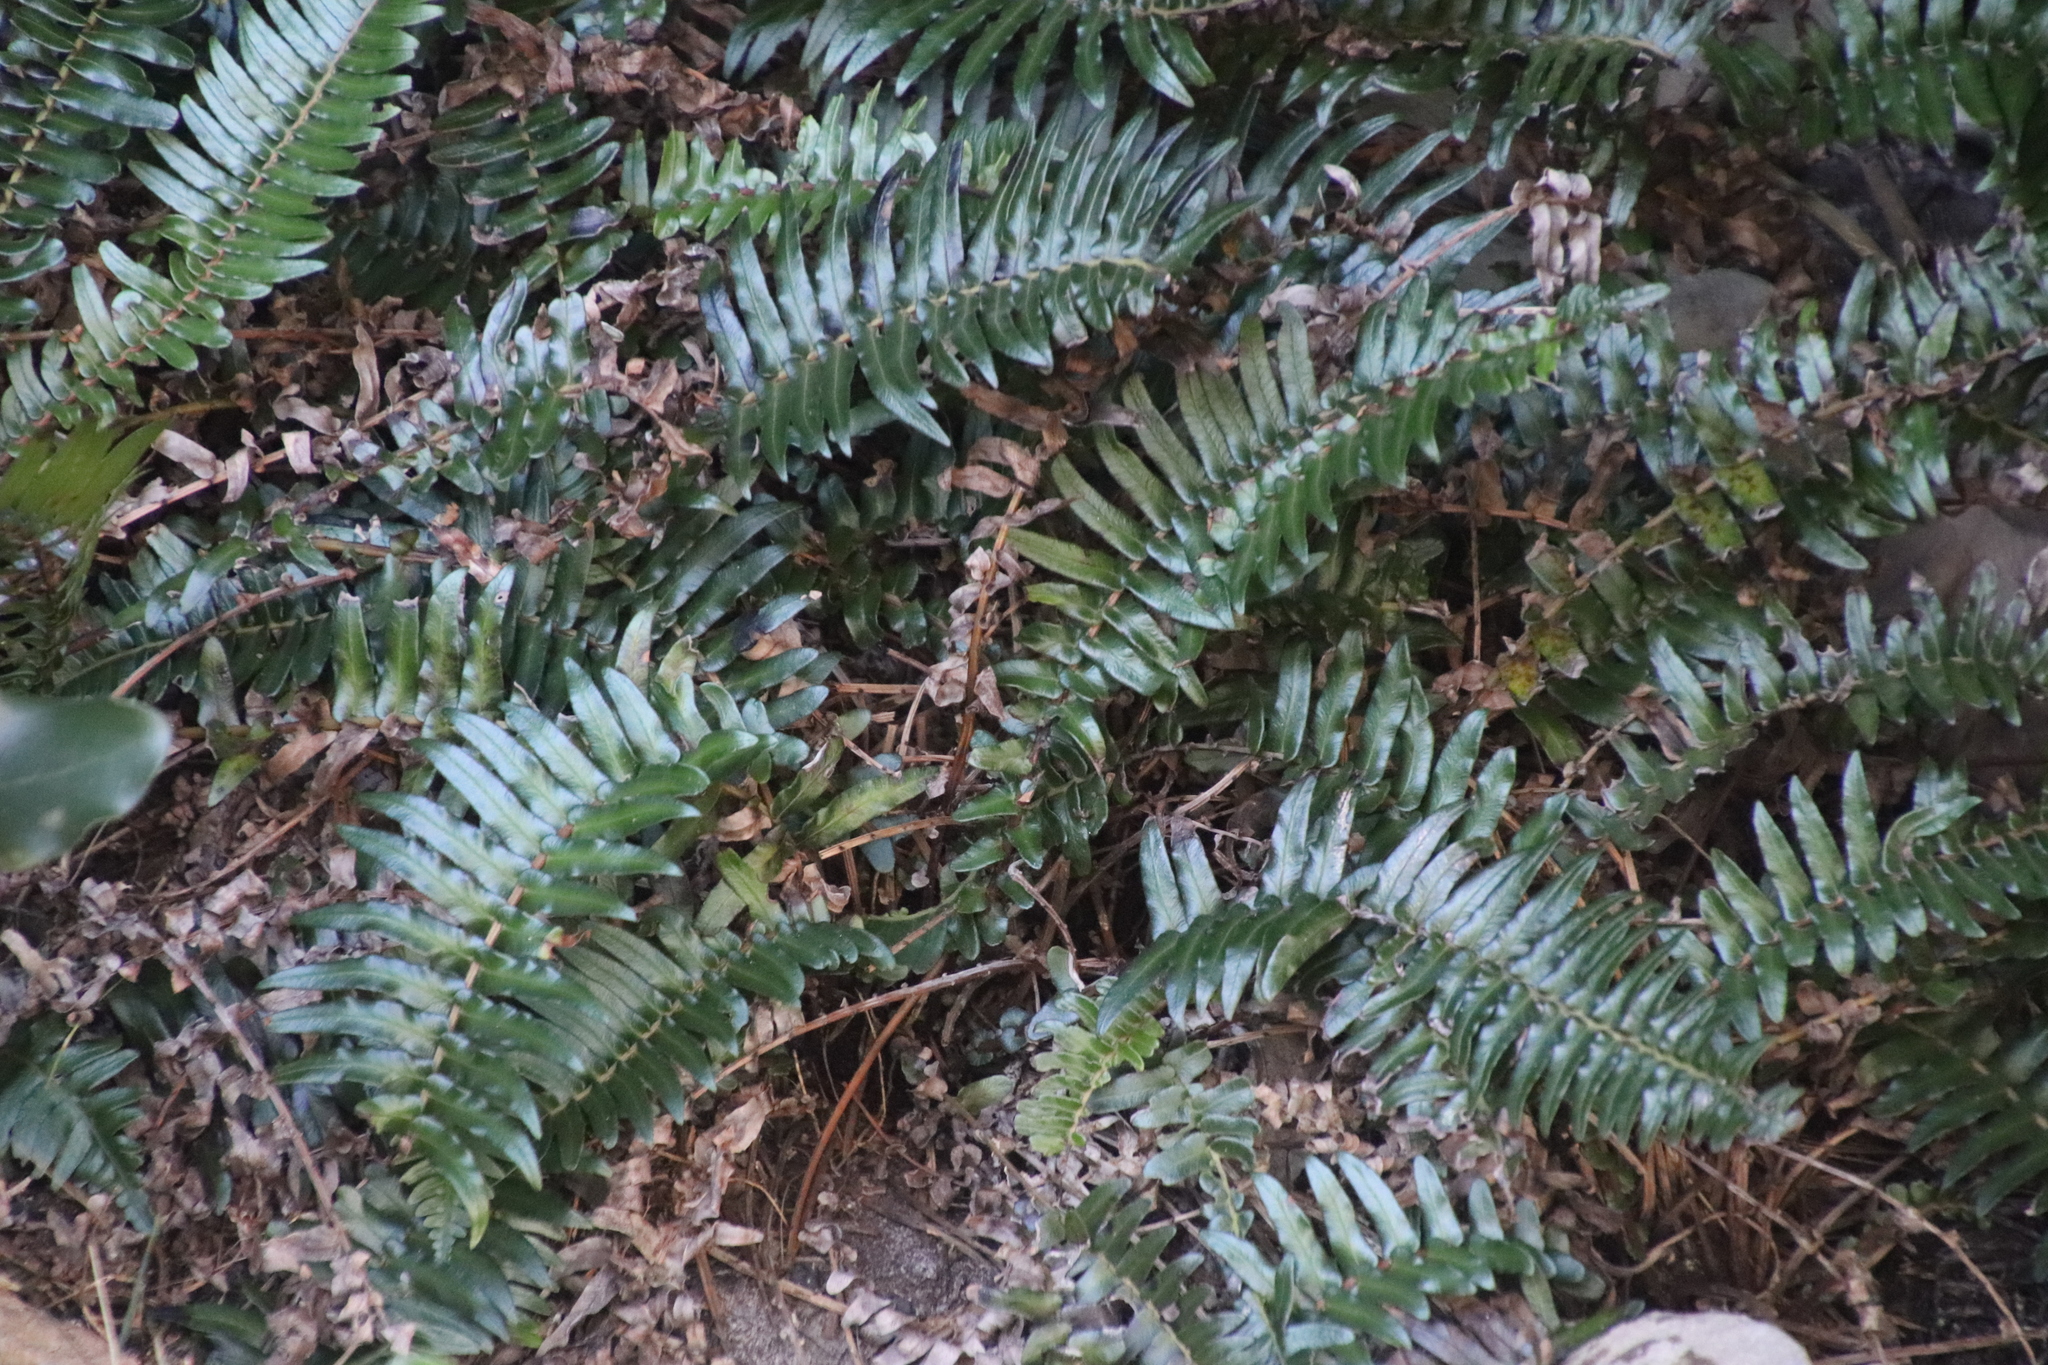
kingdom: Plantae
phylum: Tracheophyta
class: Polypodiopsida
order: Polypodiales
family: Blechnaceae
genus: Blechnum
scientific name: Blechnum punctulatum
